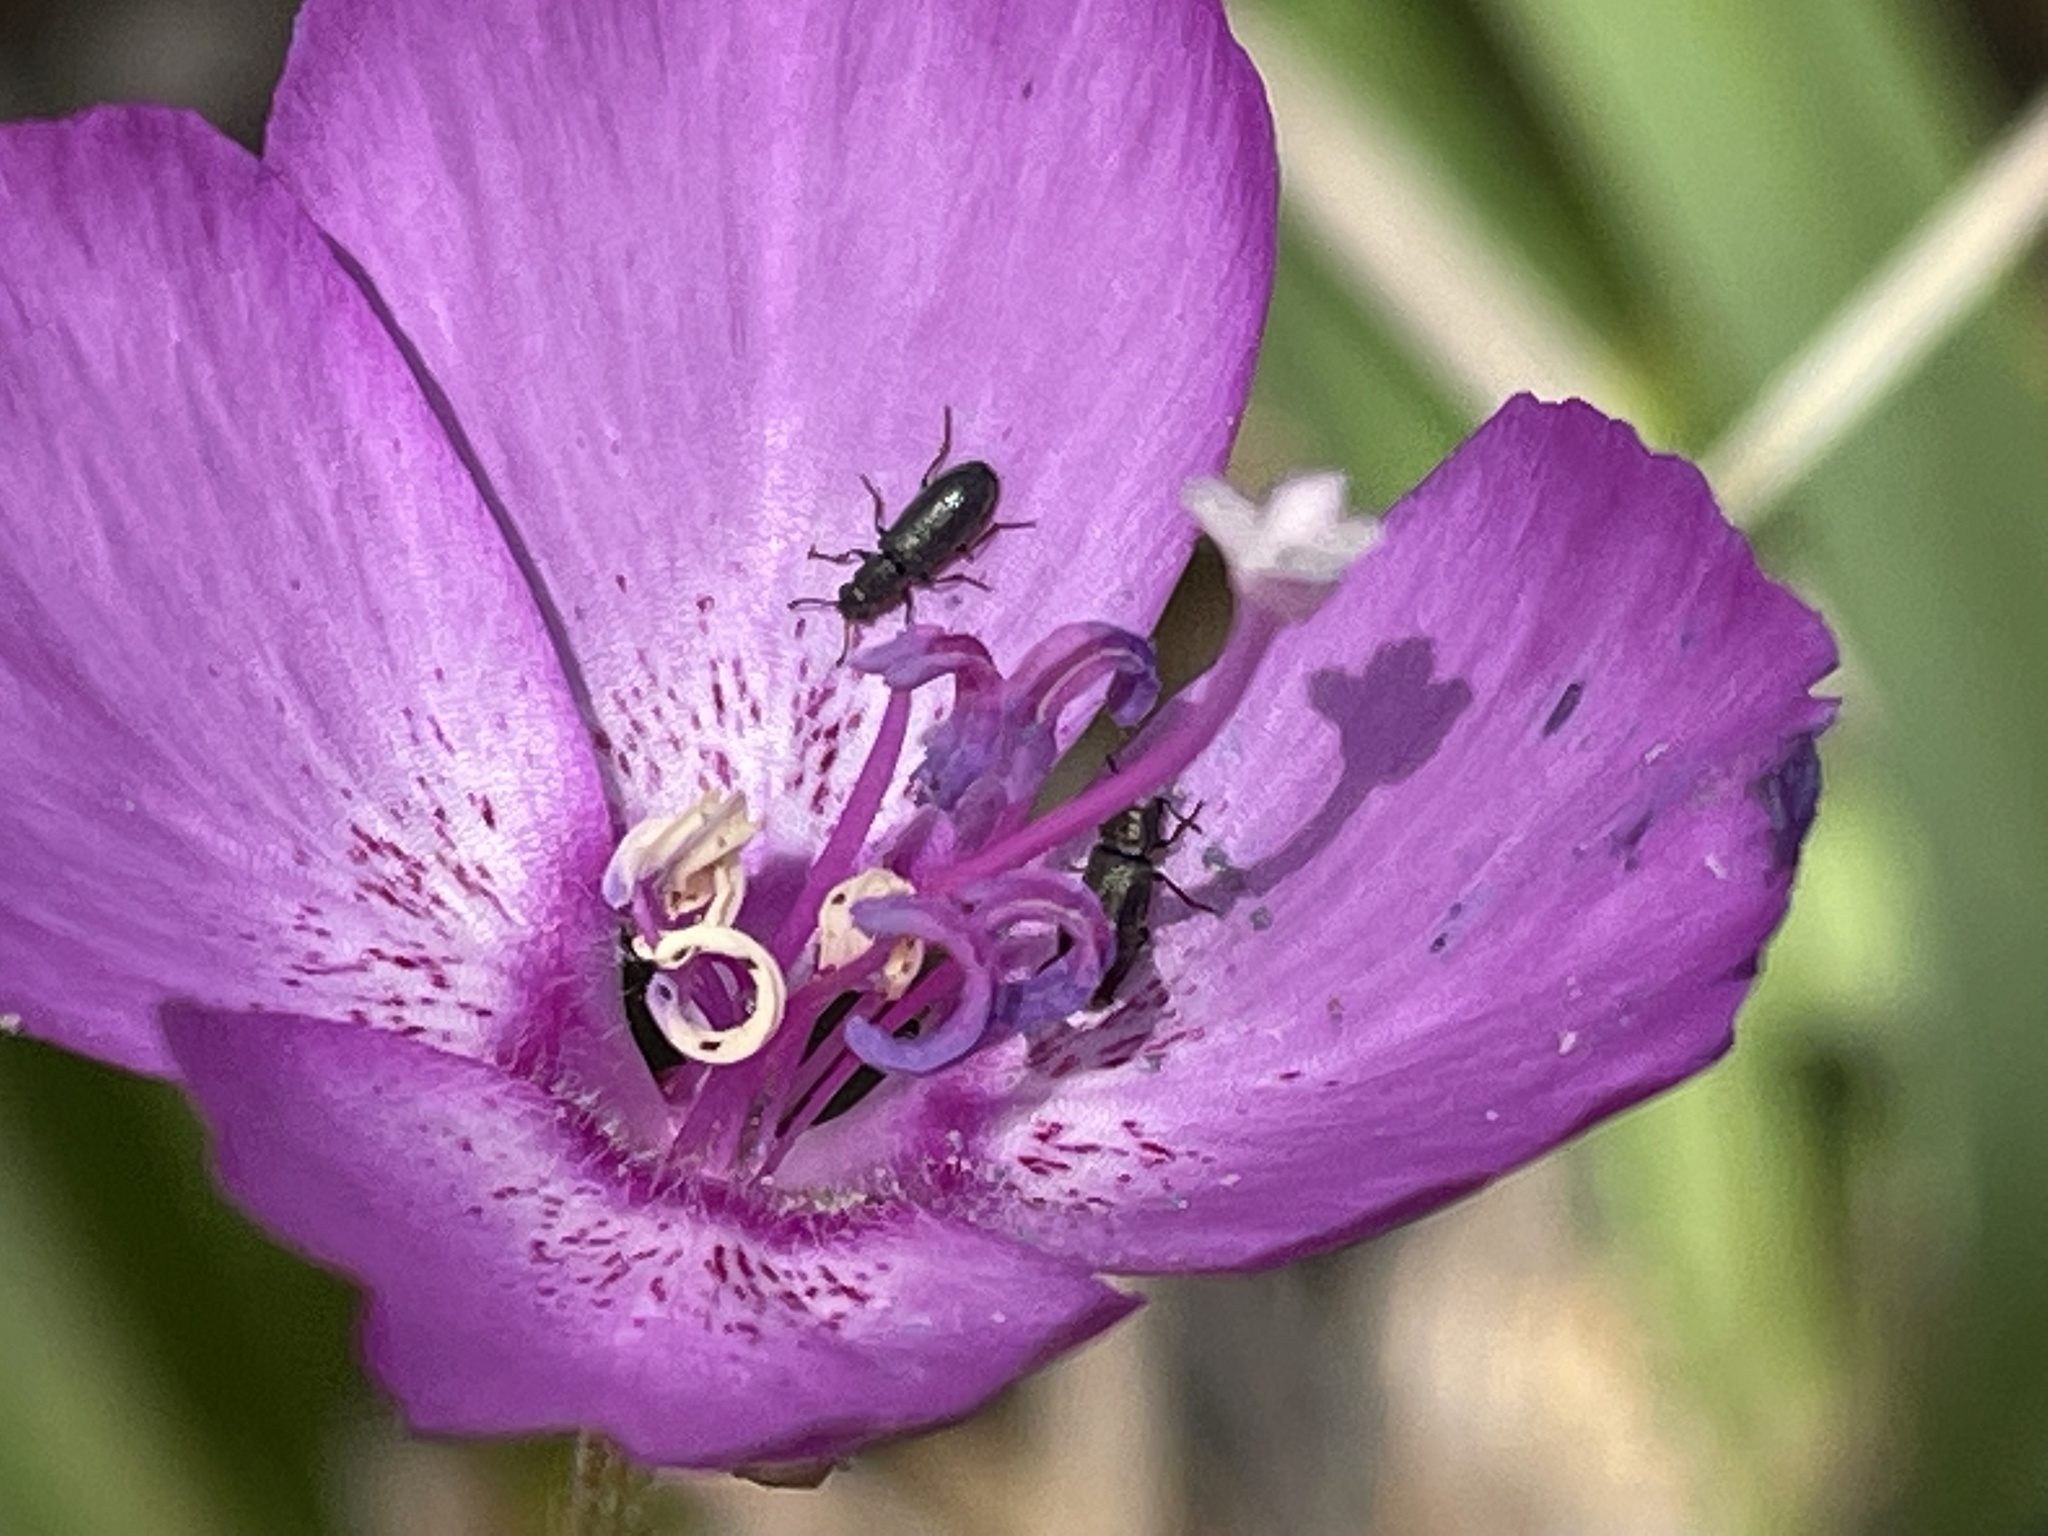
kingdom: Plantae
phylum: Tracheophyta
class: Magnoliopsida
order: Myrtales
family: Onagraceae
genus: Clarkia
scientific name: Clarkia lewisii
